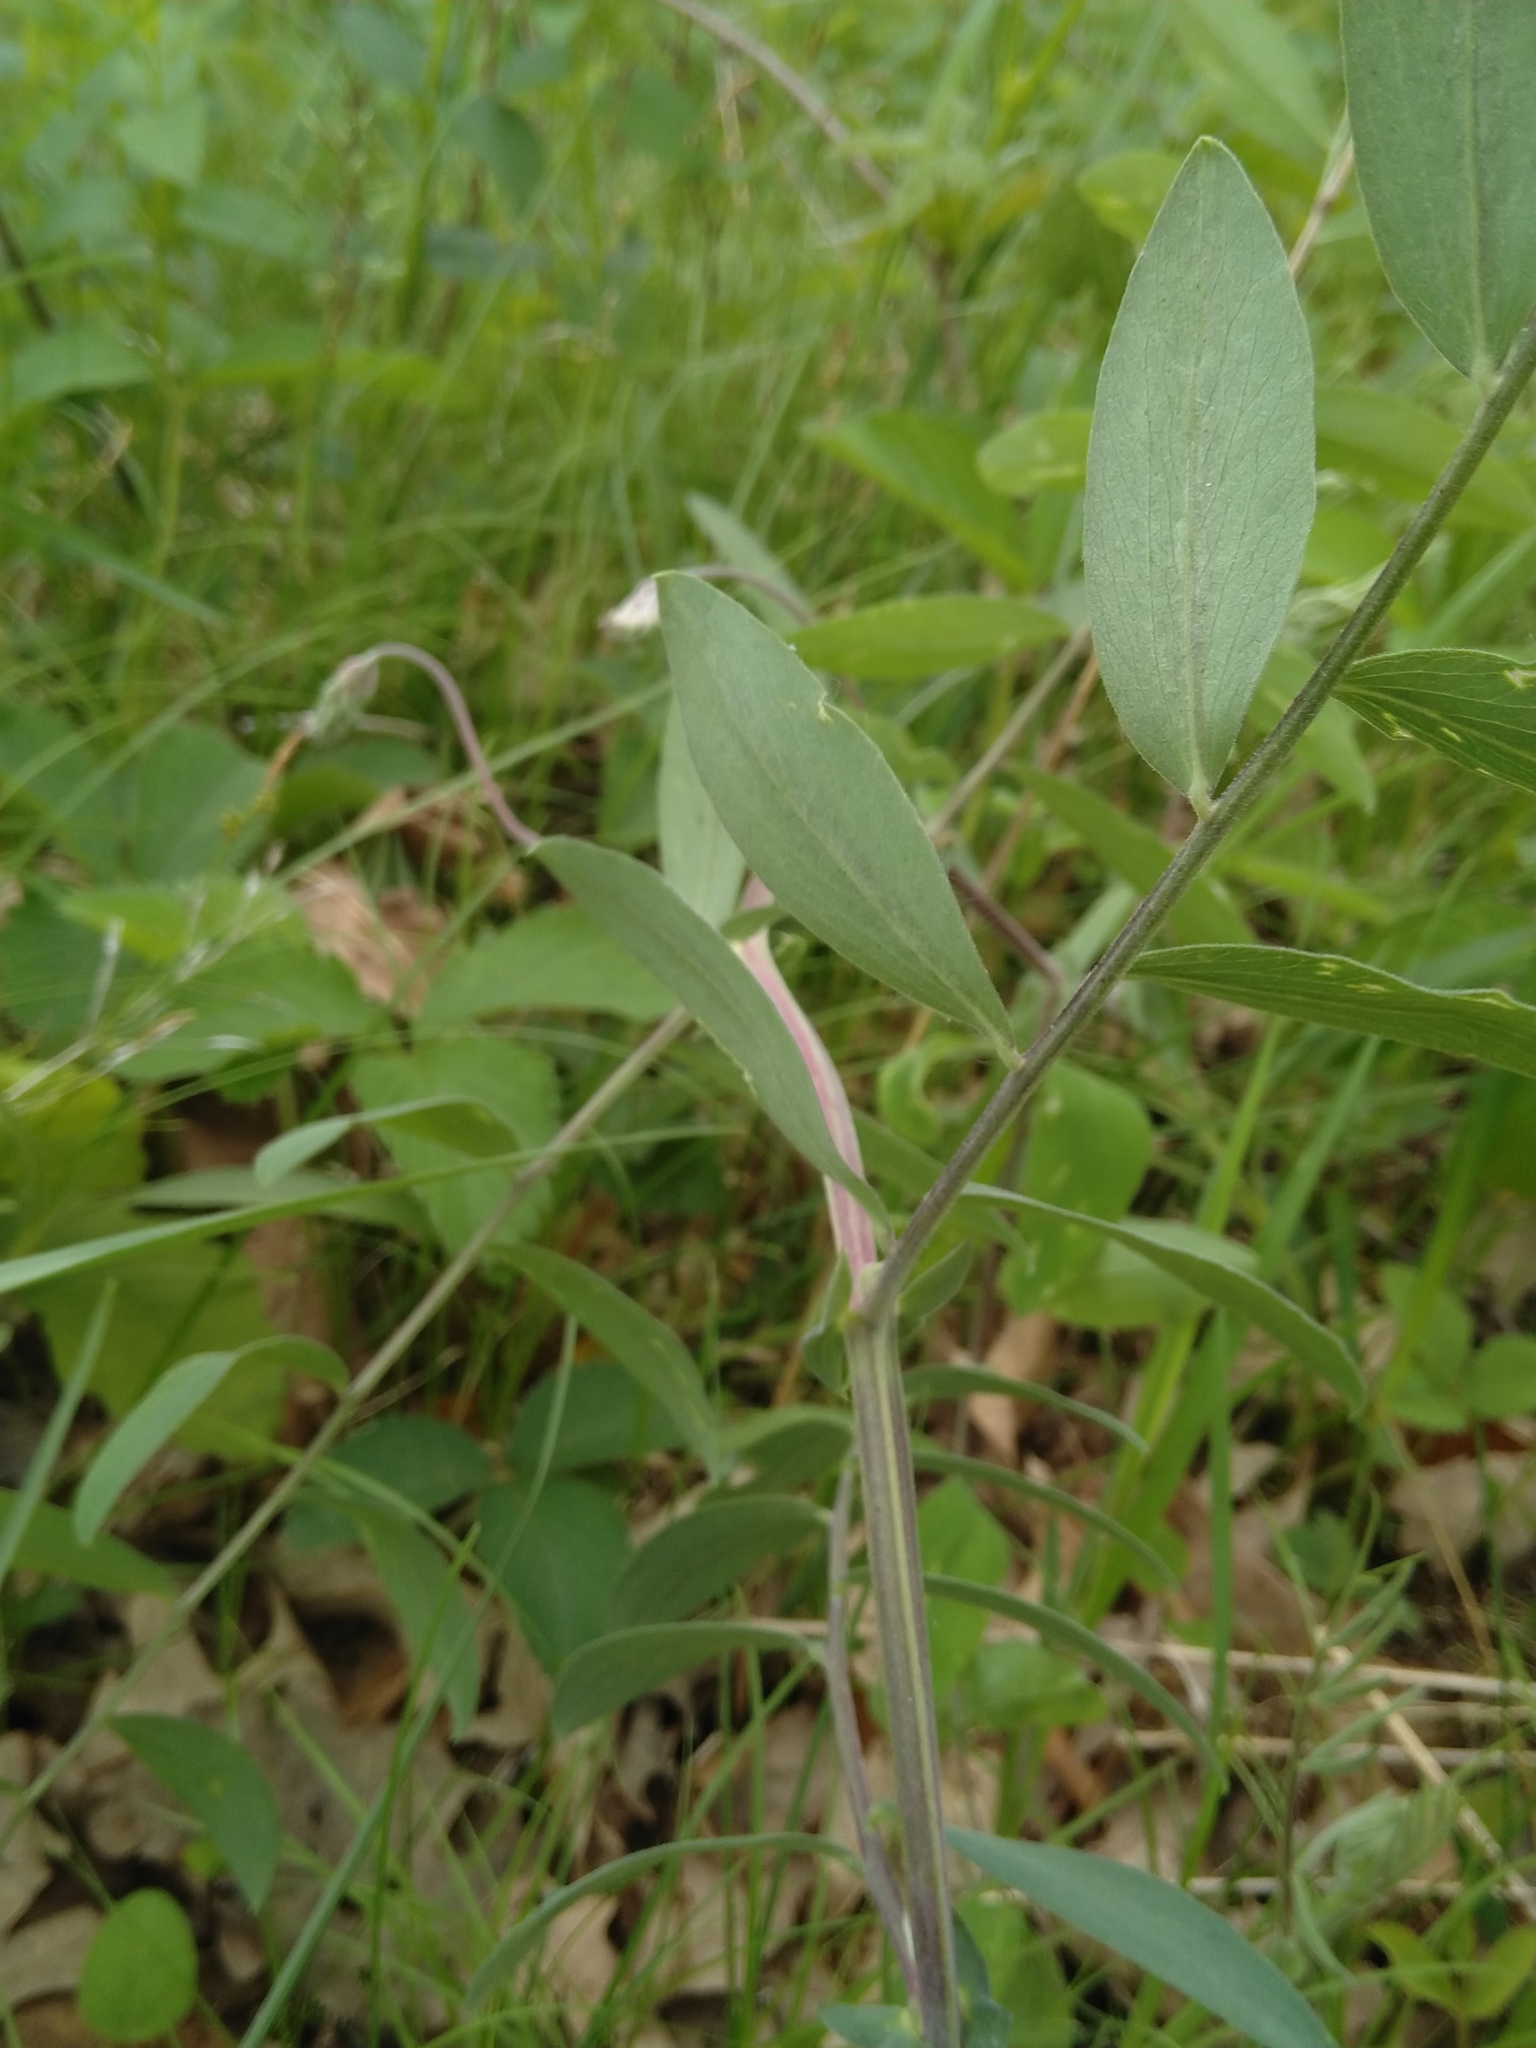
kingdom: Plantae
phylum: Tracheophyta
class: Magnoliopsida
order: Fabales
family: Fabaceae
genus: Lathyrus
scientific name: Lathyrus venosus
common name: Forest-pea
